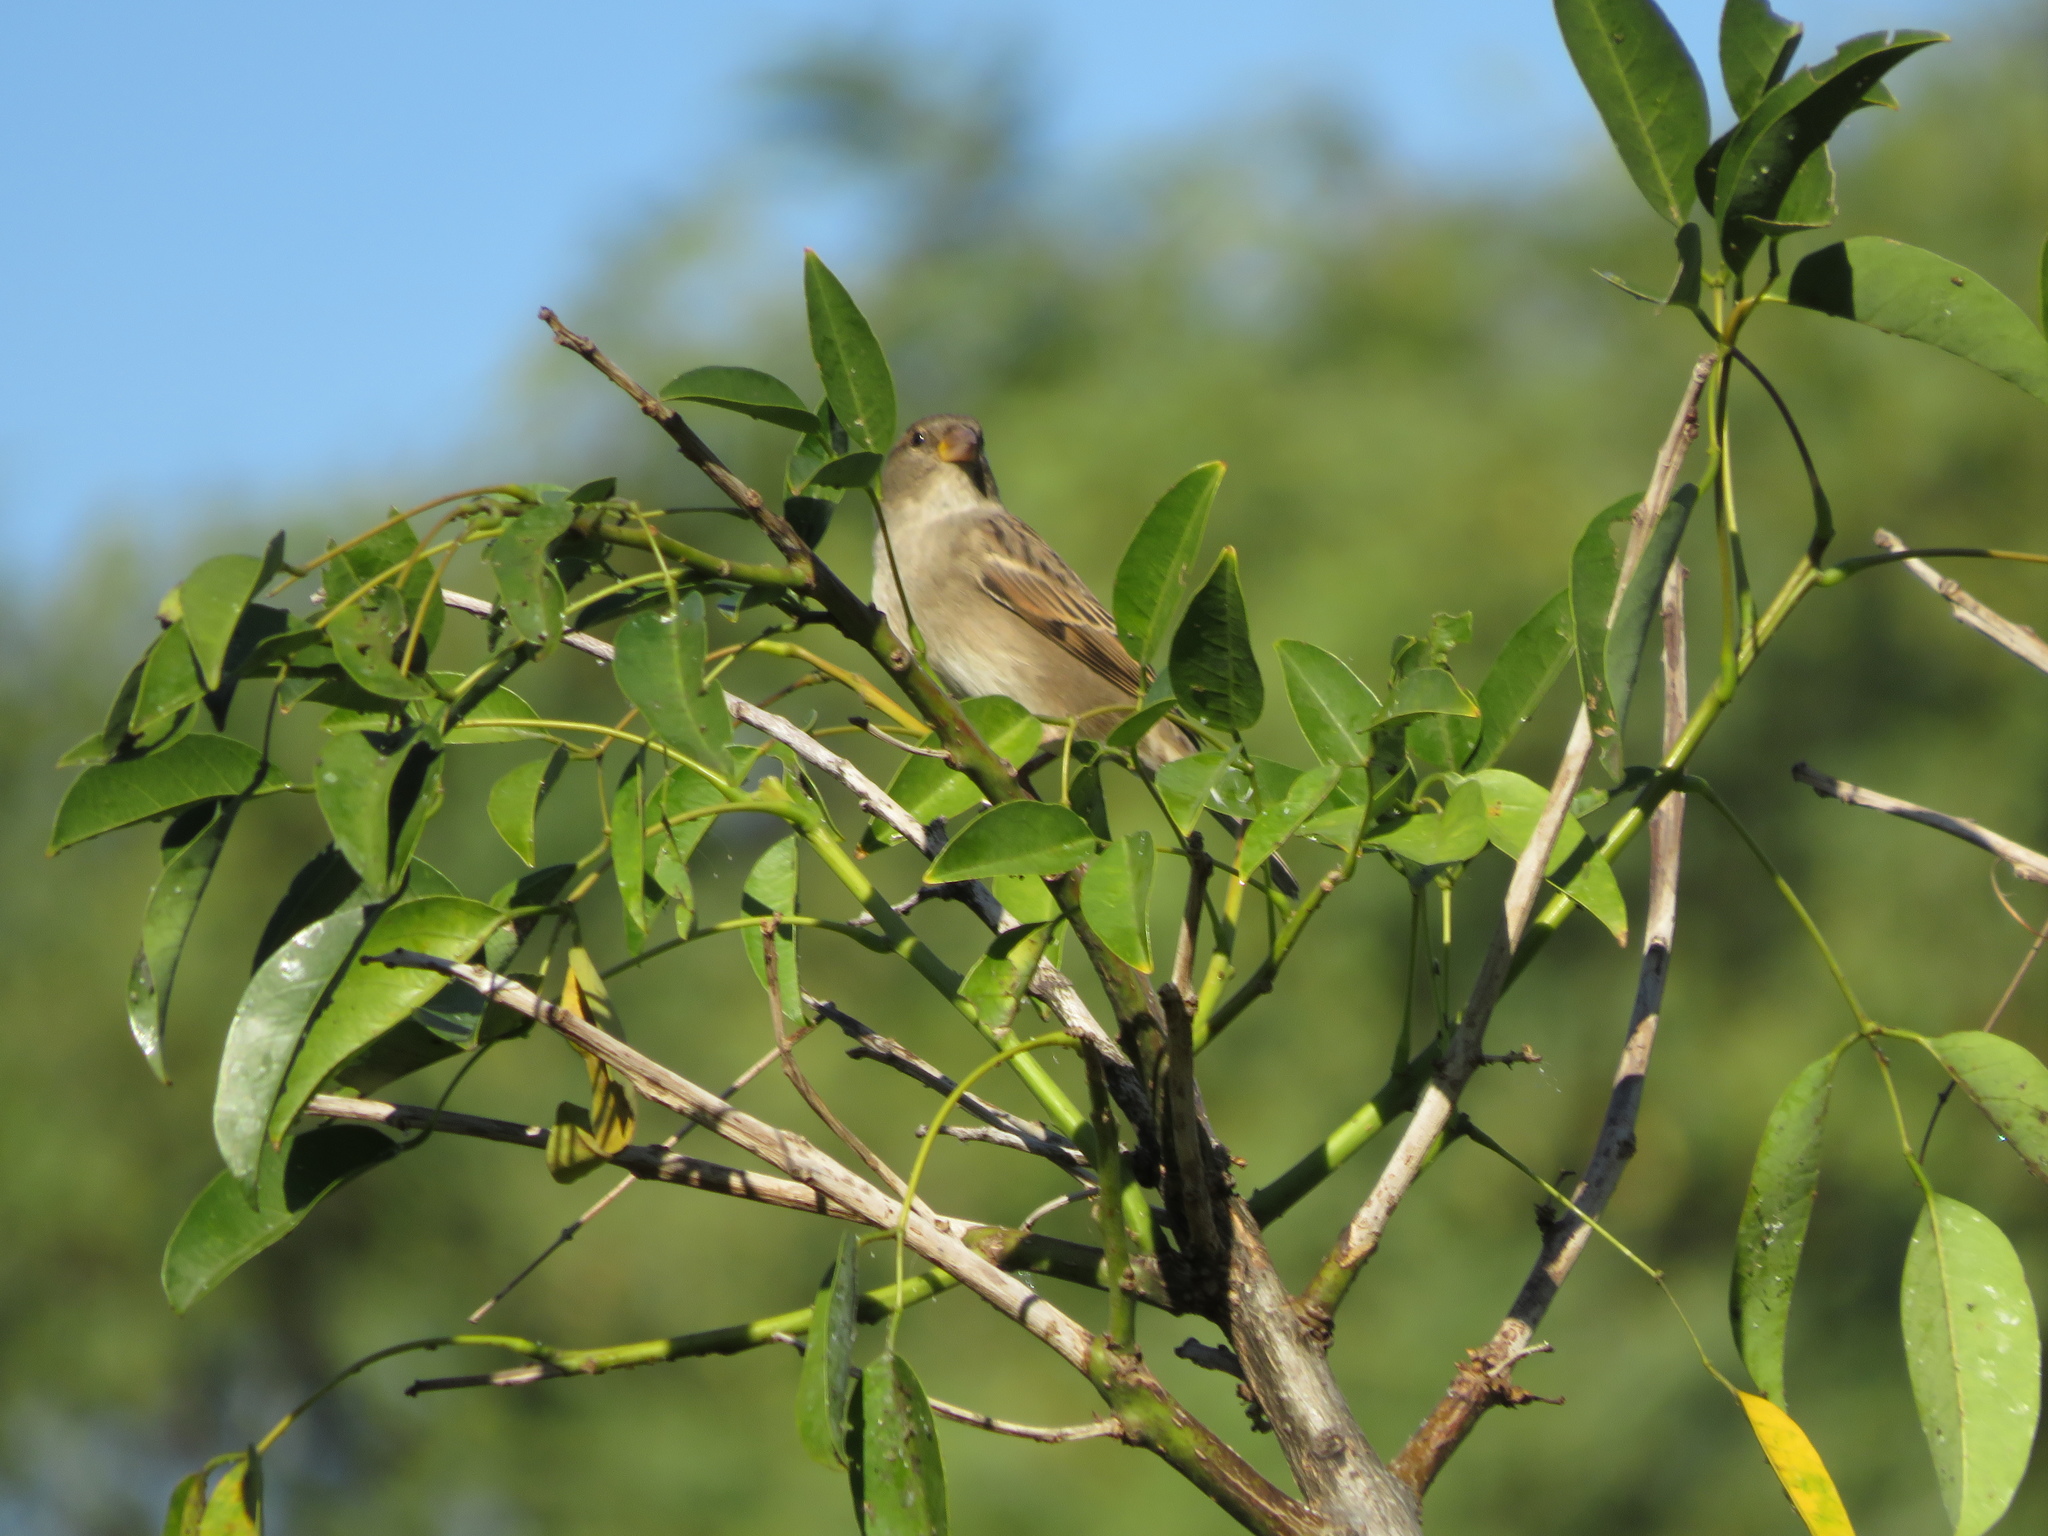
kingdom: Animalia
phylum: Chordata
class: Aves
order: Passeriformes
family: Passeridae
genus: Passer
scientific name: Passer domesticus
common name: House sparrow
